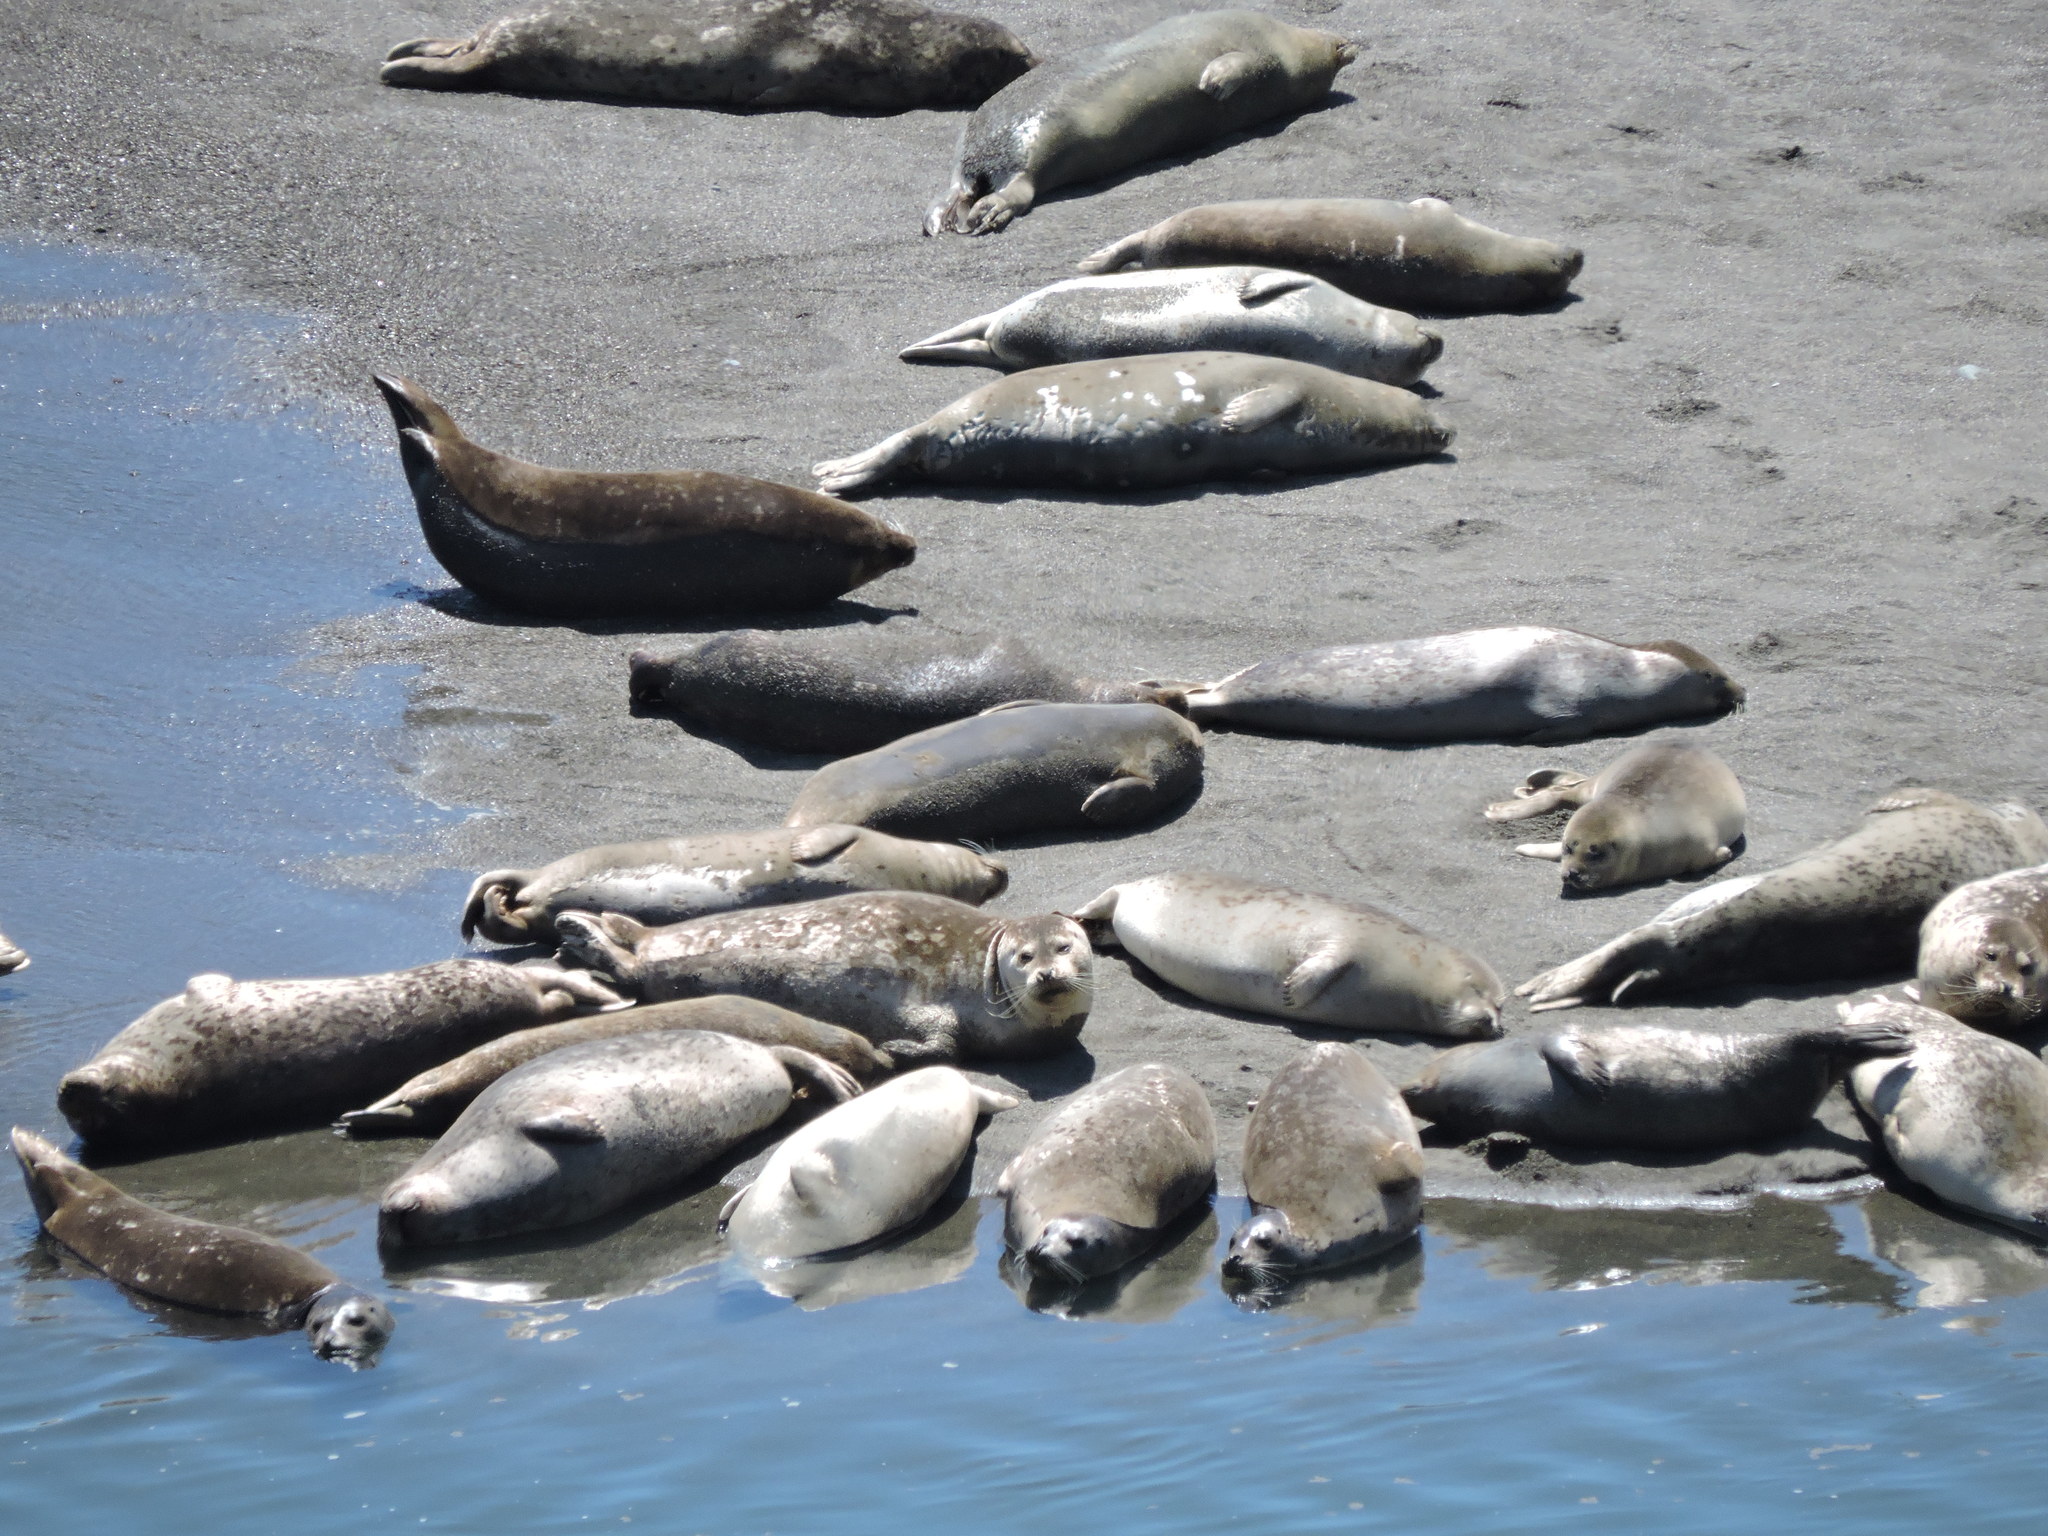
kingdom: Animalia
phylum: Chordata
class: Mammalia
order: Carnivora
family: Phocidae
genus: Phoca
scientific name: Phoca vitulina
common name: Harbor seal
